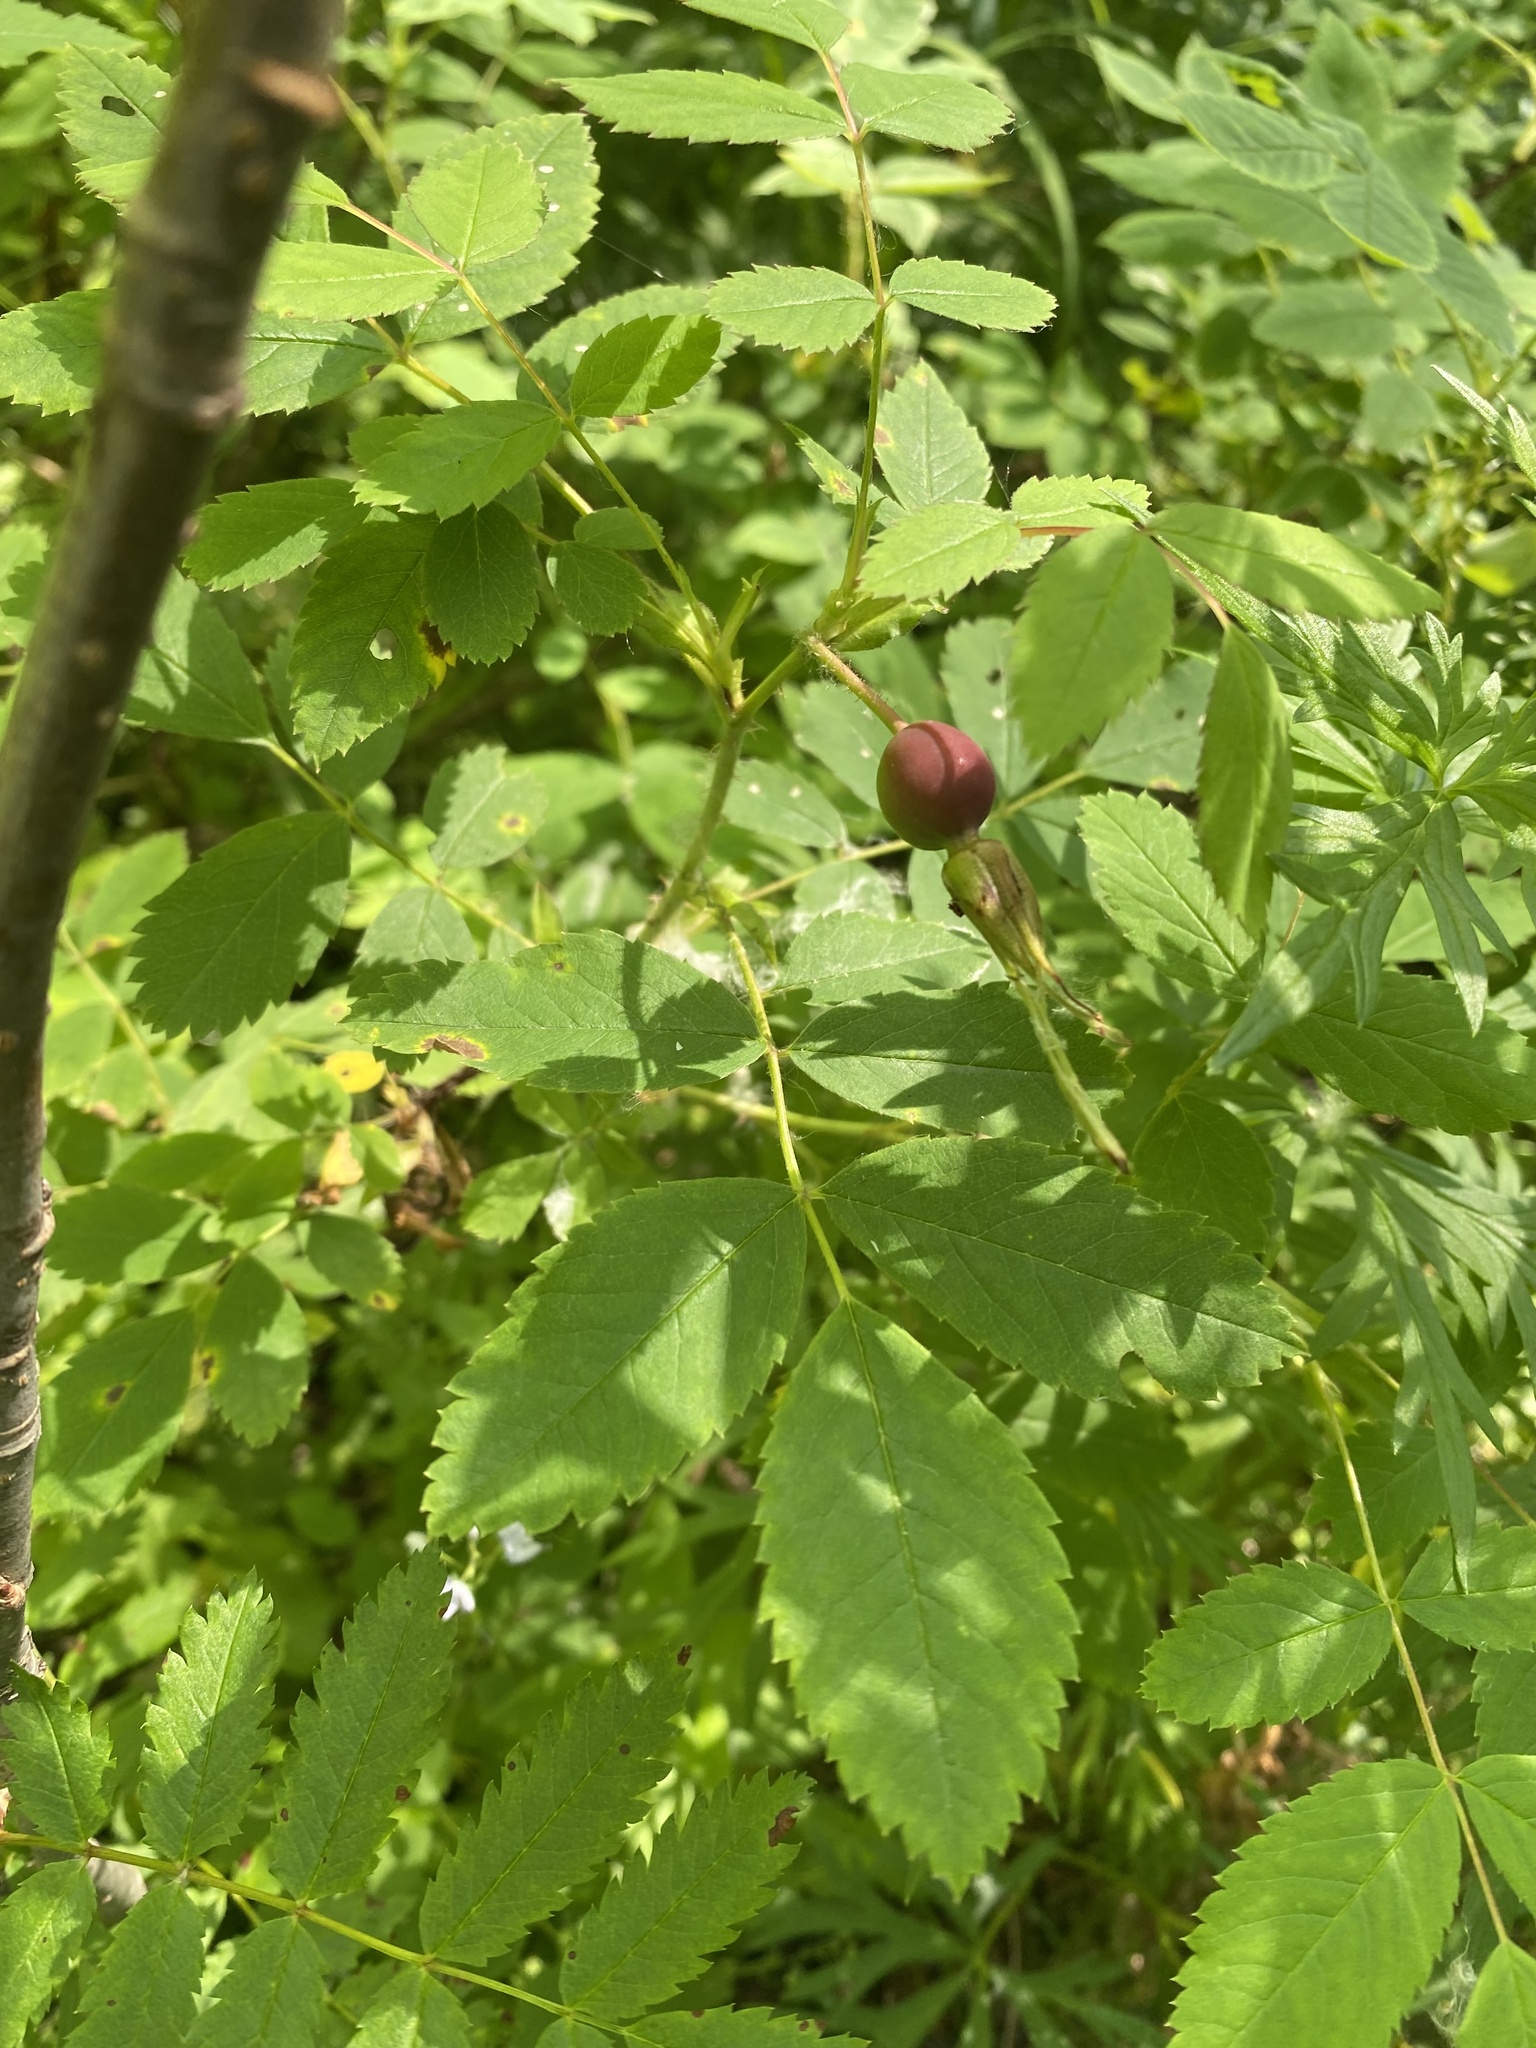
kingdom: Plantae
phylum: Tracheophyta
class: Magnoliopsida
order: Rosales
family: Rosaceae
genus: Rosa
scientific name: Rosa acicularis
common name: Prickly rose
